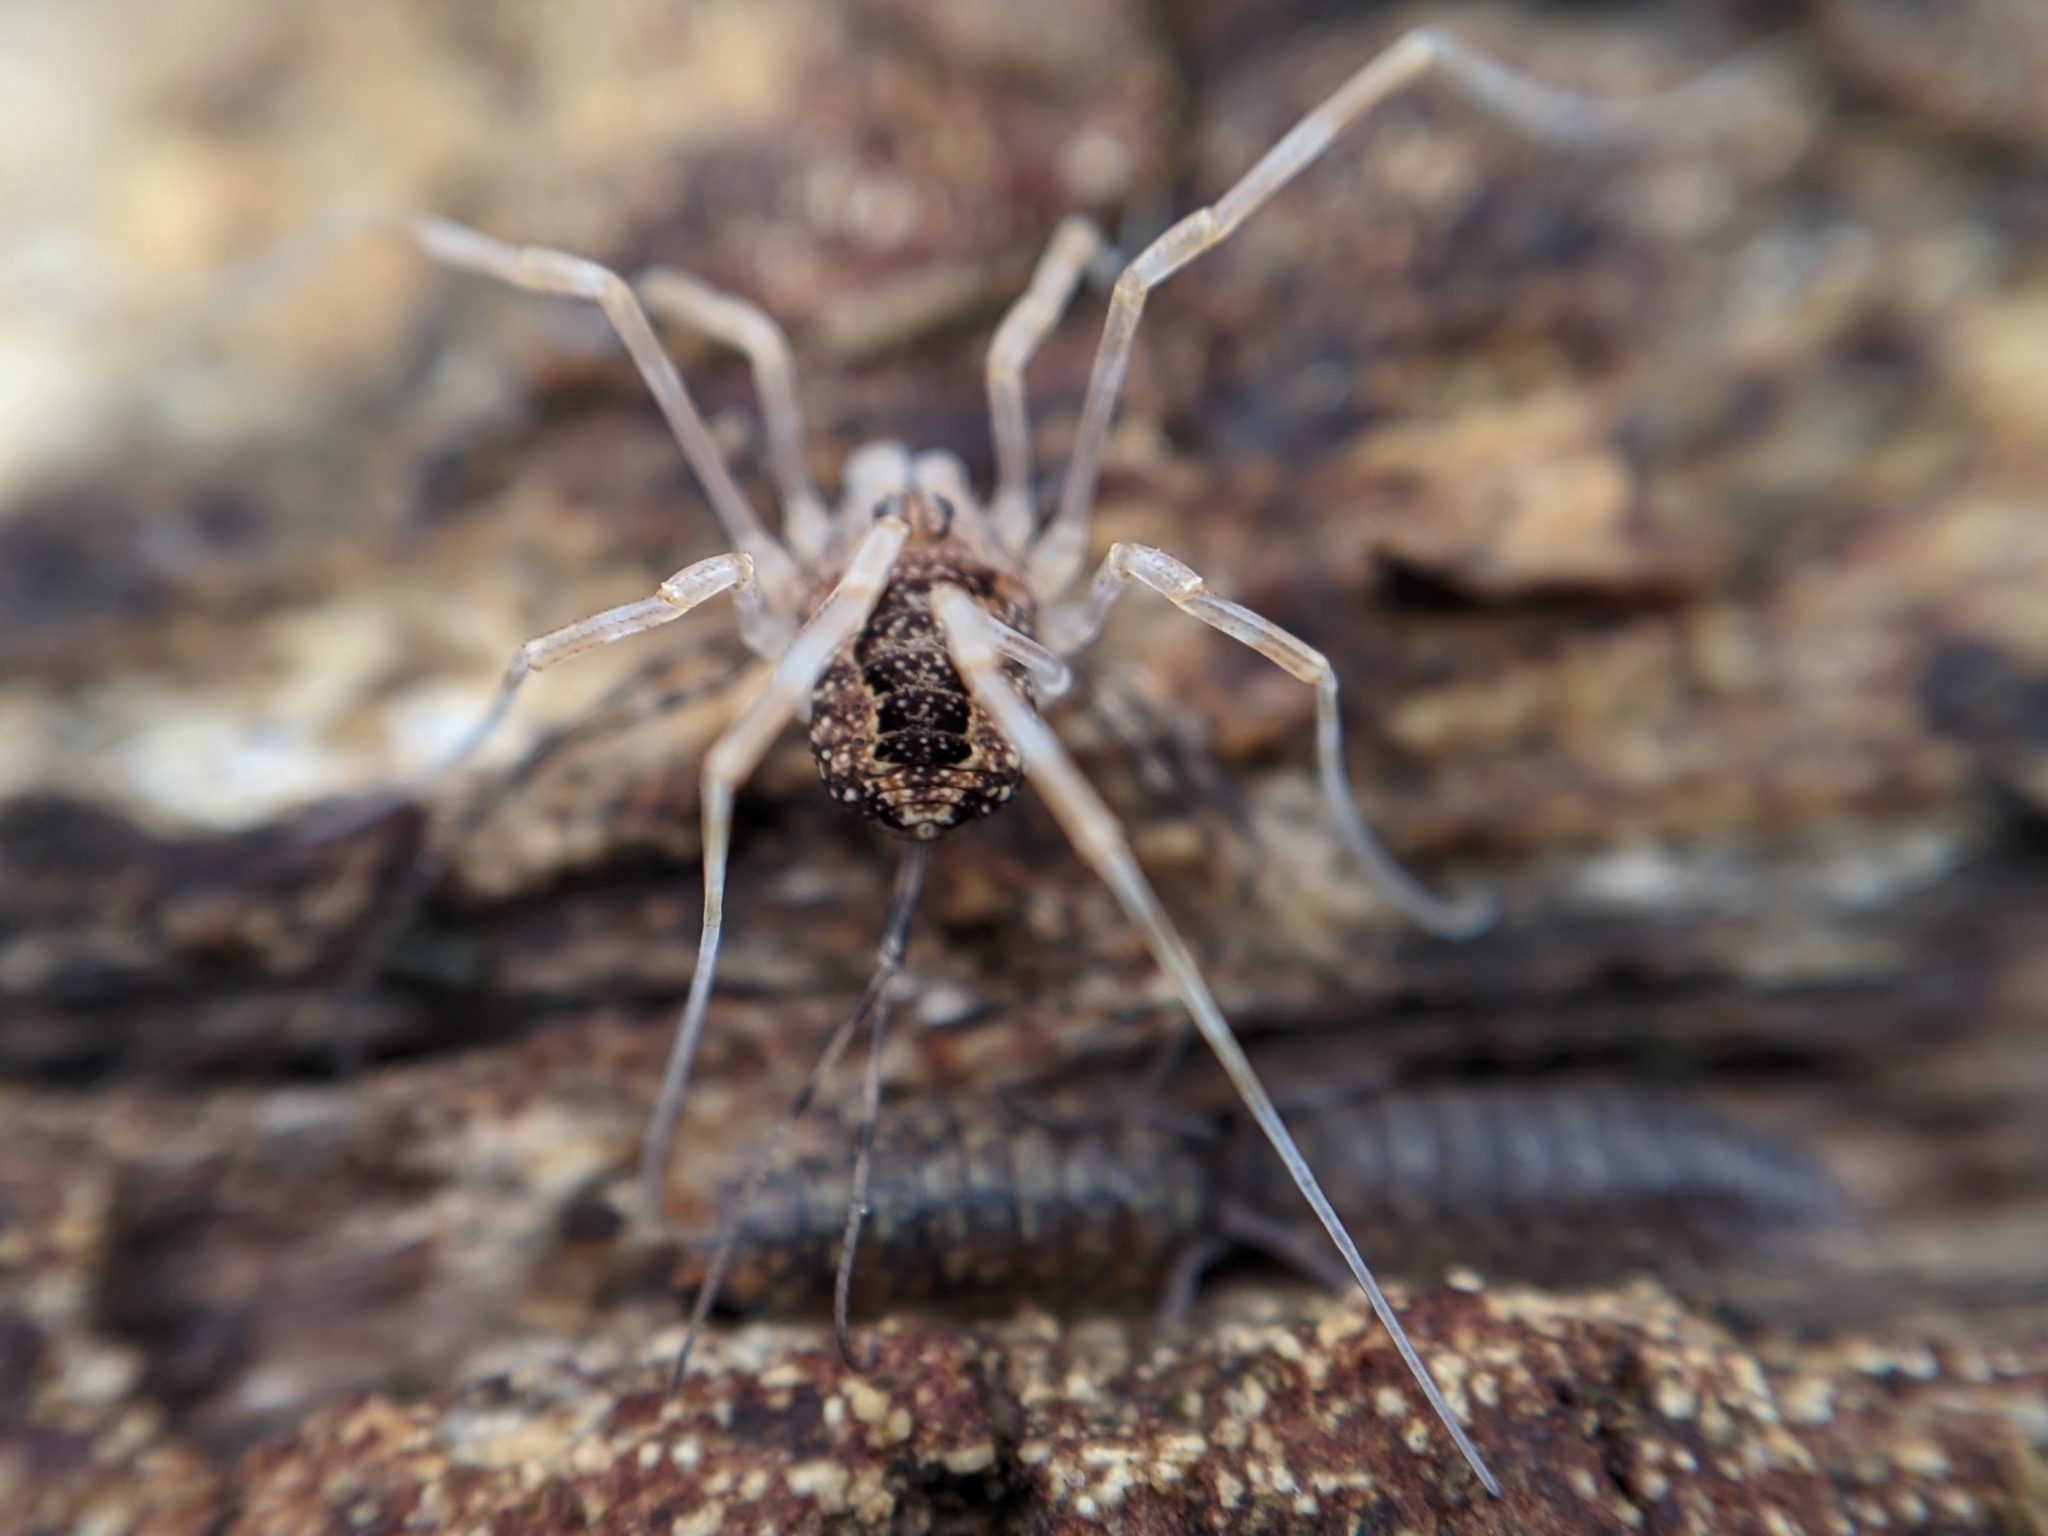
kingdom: Animalia
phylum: Arthropoda
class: Arachnida
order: Opiliones
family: Phalangiidae
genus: Rilaena
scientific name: Rilaena triangularis
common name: Spring harvestman
